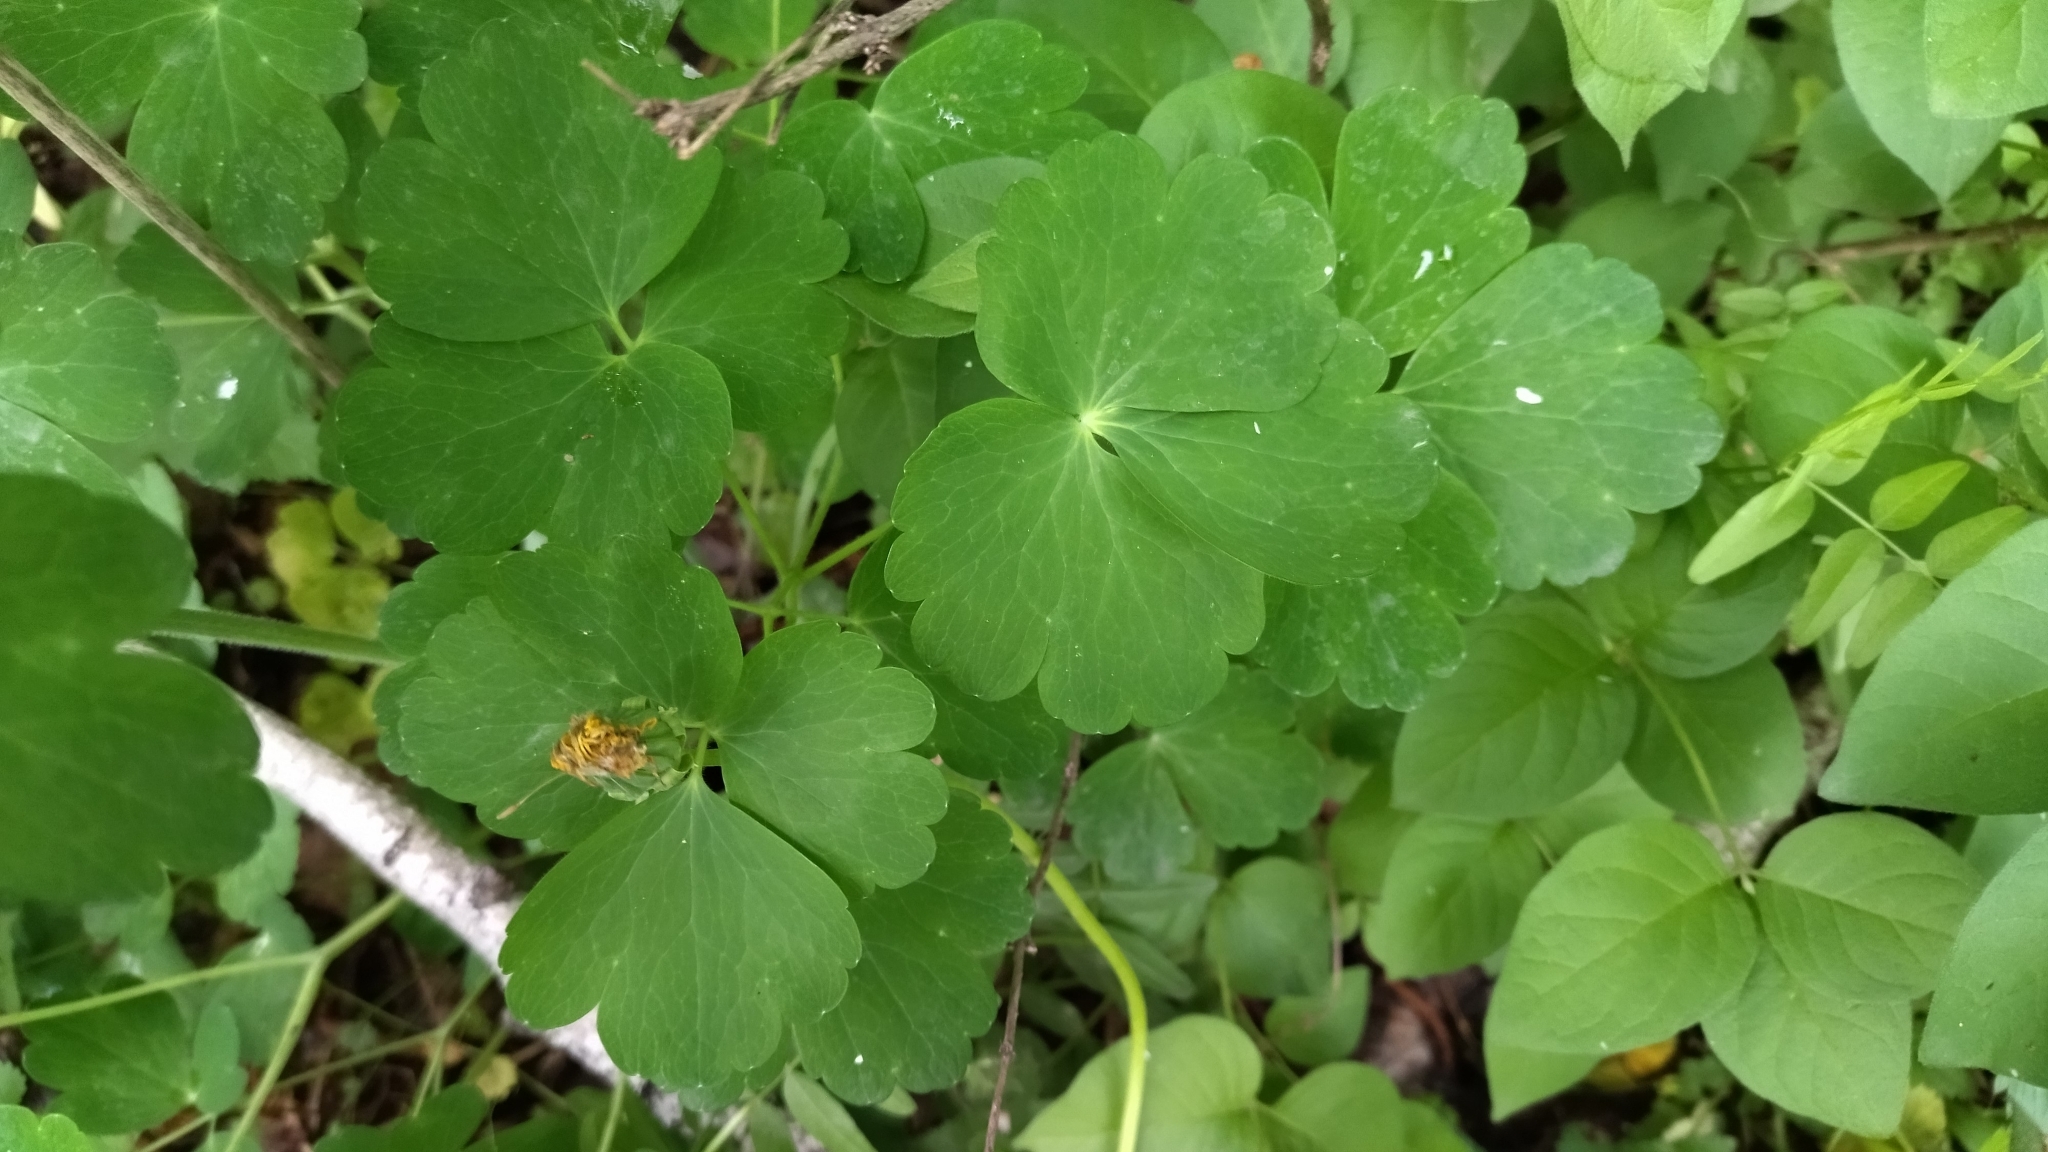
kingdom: Plantae
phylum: Tracheophyta
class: Magnoliopsida
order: Ranunculales
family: Ranunculaceae
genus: Aquilegia
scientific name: Aquilegia vulgaris
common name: Columbine
